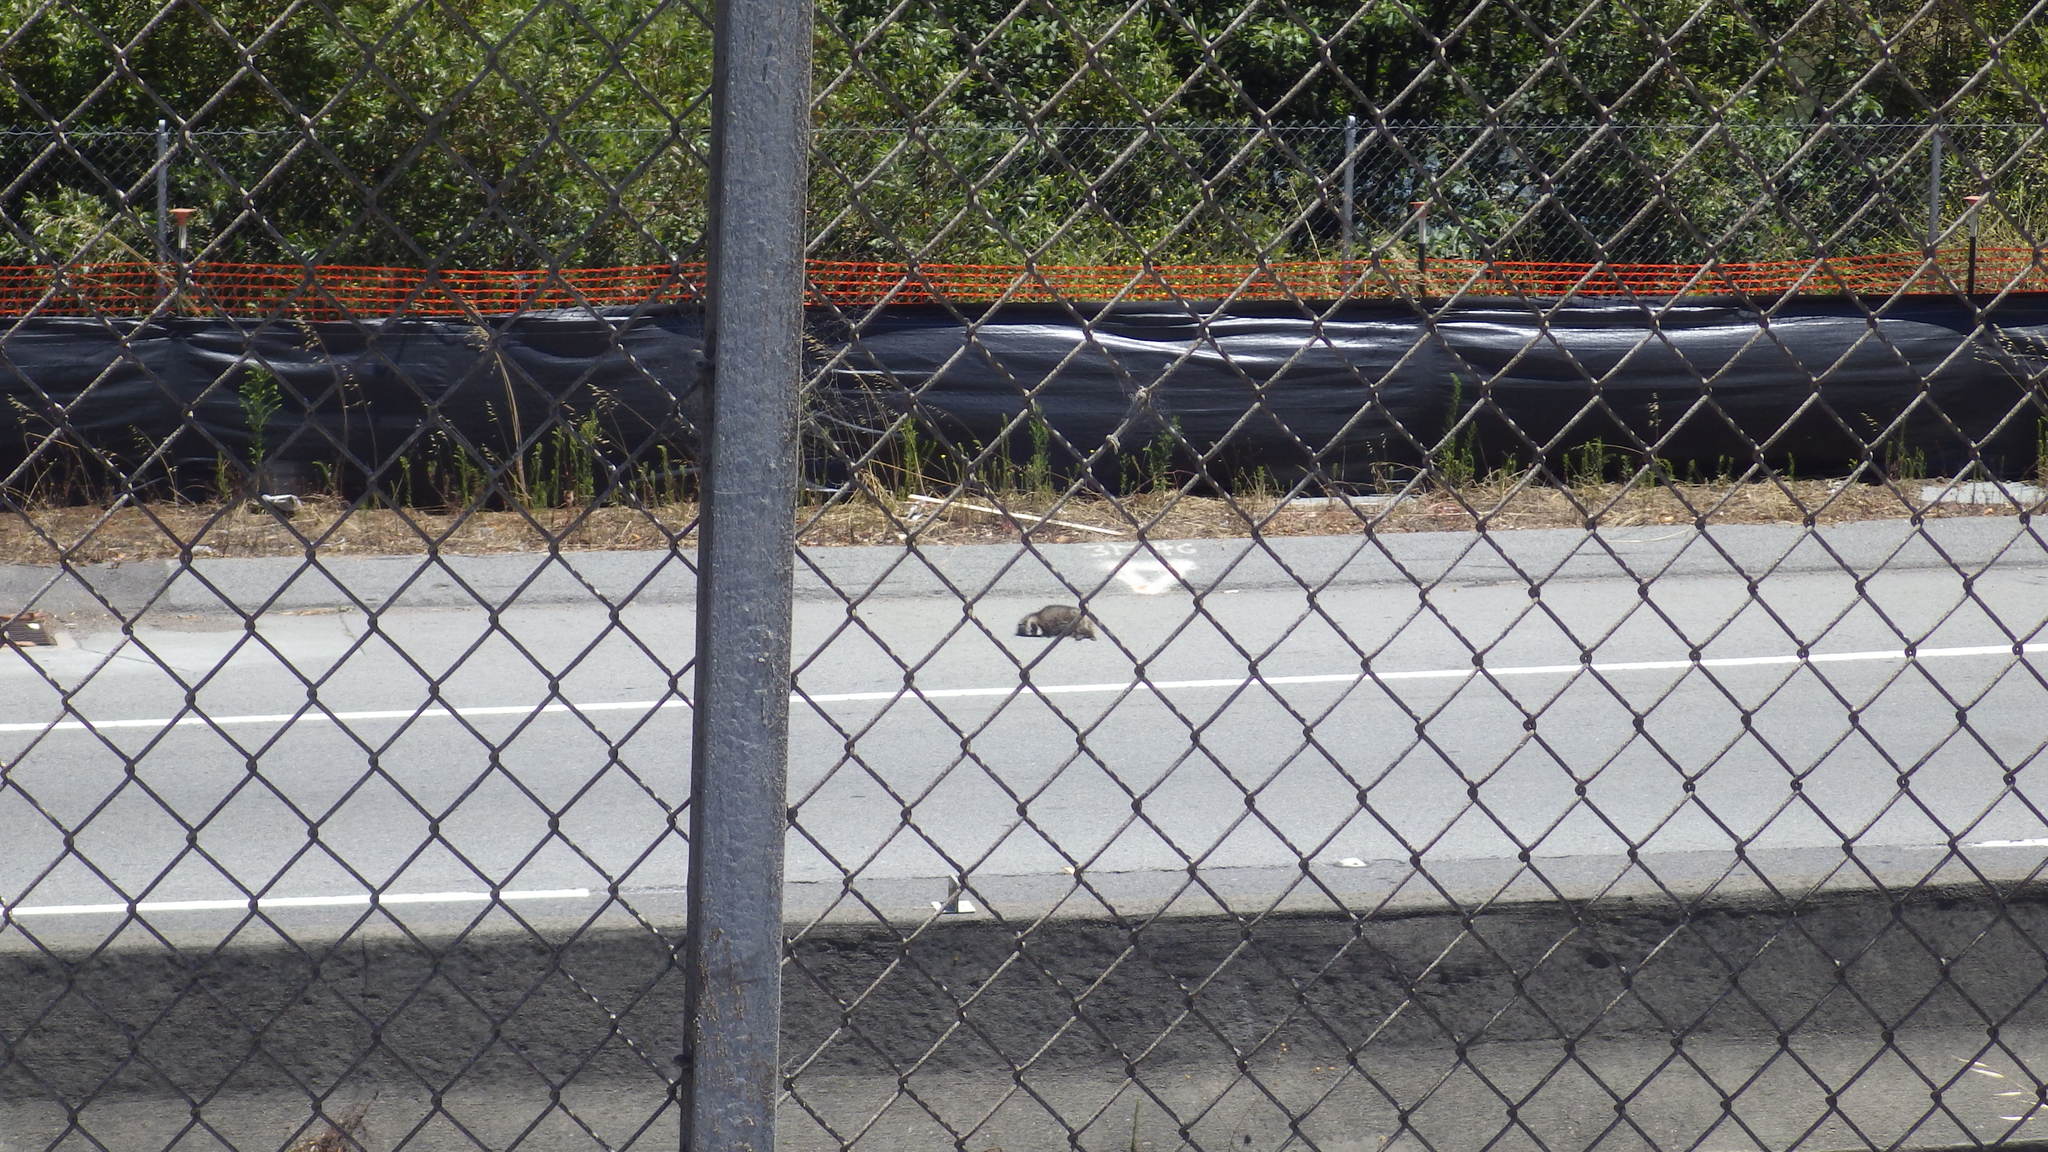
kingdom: Animalia
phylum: Chordata
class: Mammalia
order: Carnivora
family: Procyonidae
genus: Procyon
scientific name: Procyon lotor
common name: Raccoon
